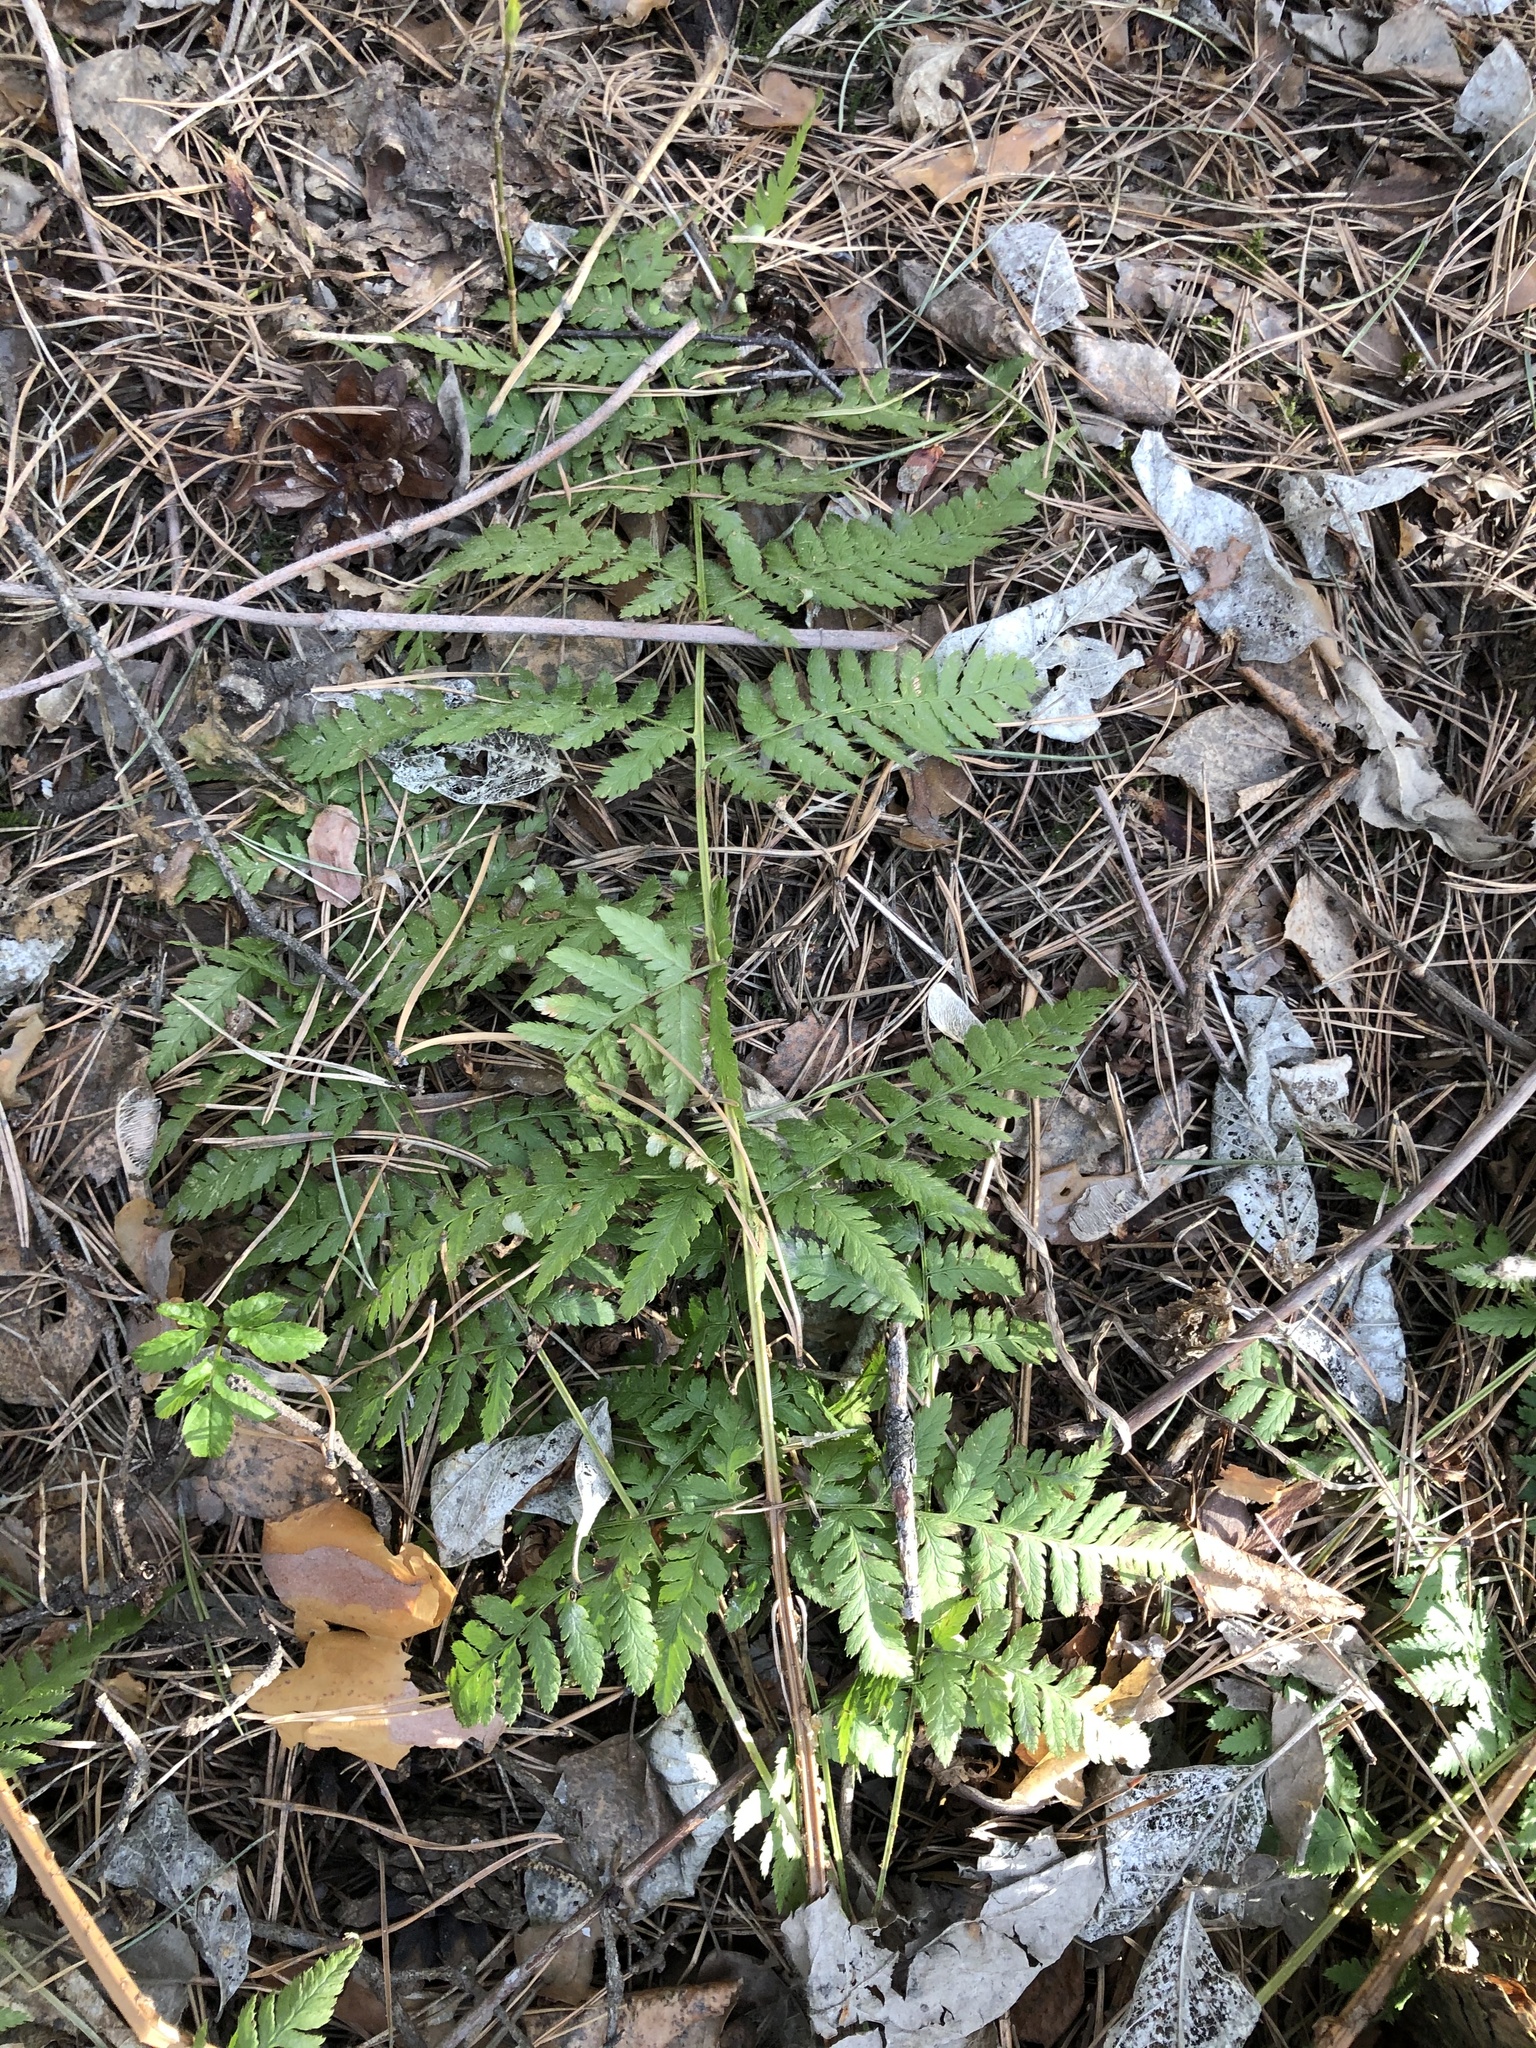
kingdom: Plantae
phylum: Tracheophyta
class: Polypodiopsida
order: Polypodiales
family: Dryopteridaceae
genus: Dryopteris
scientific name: Dryopteris carthusiana
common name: Narrow buckler-fern
